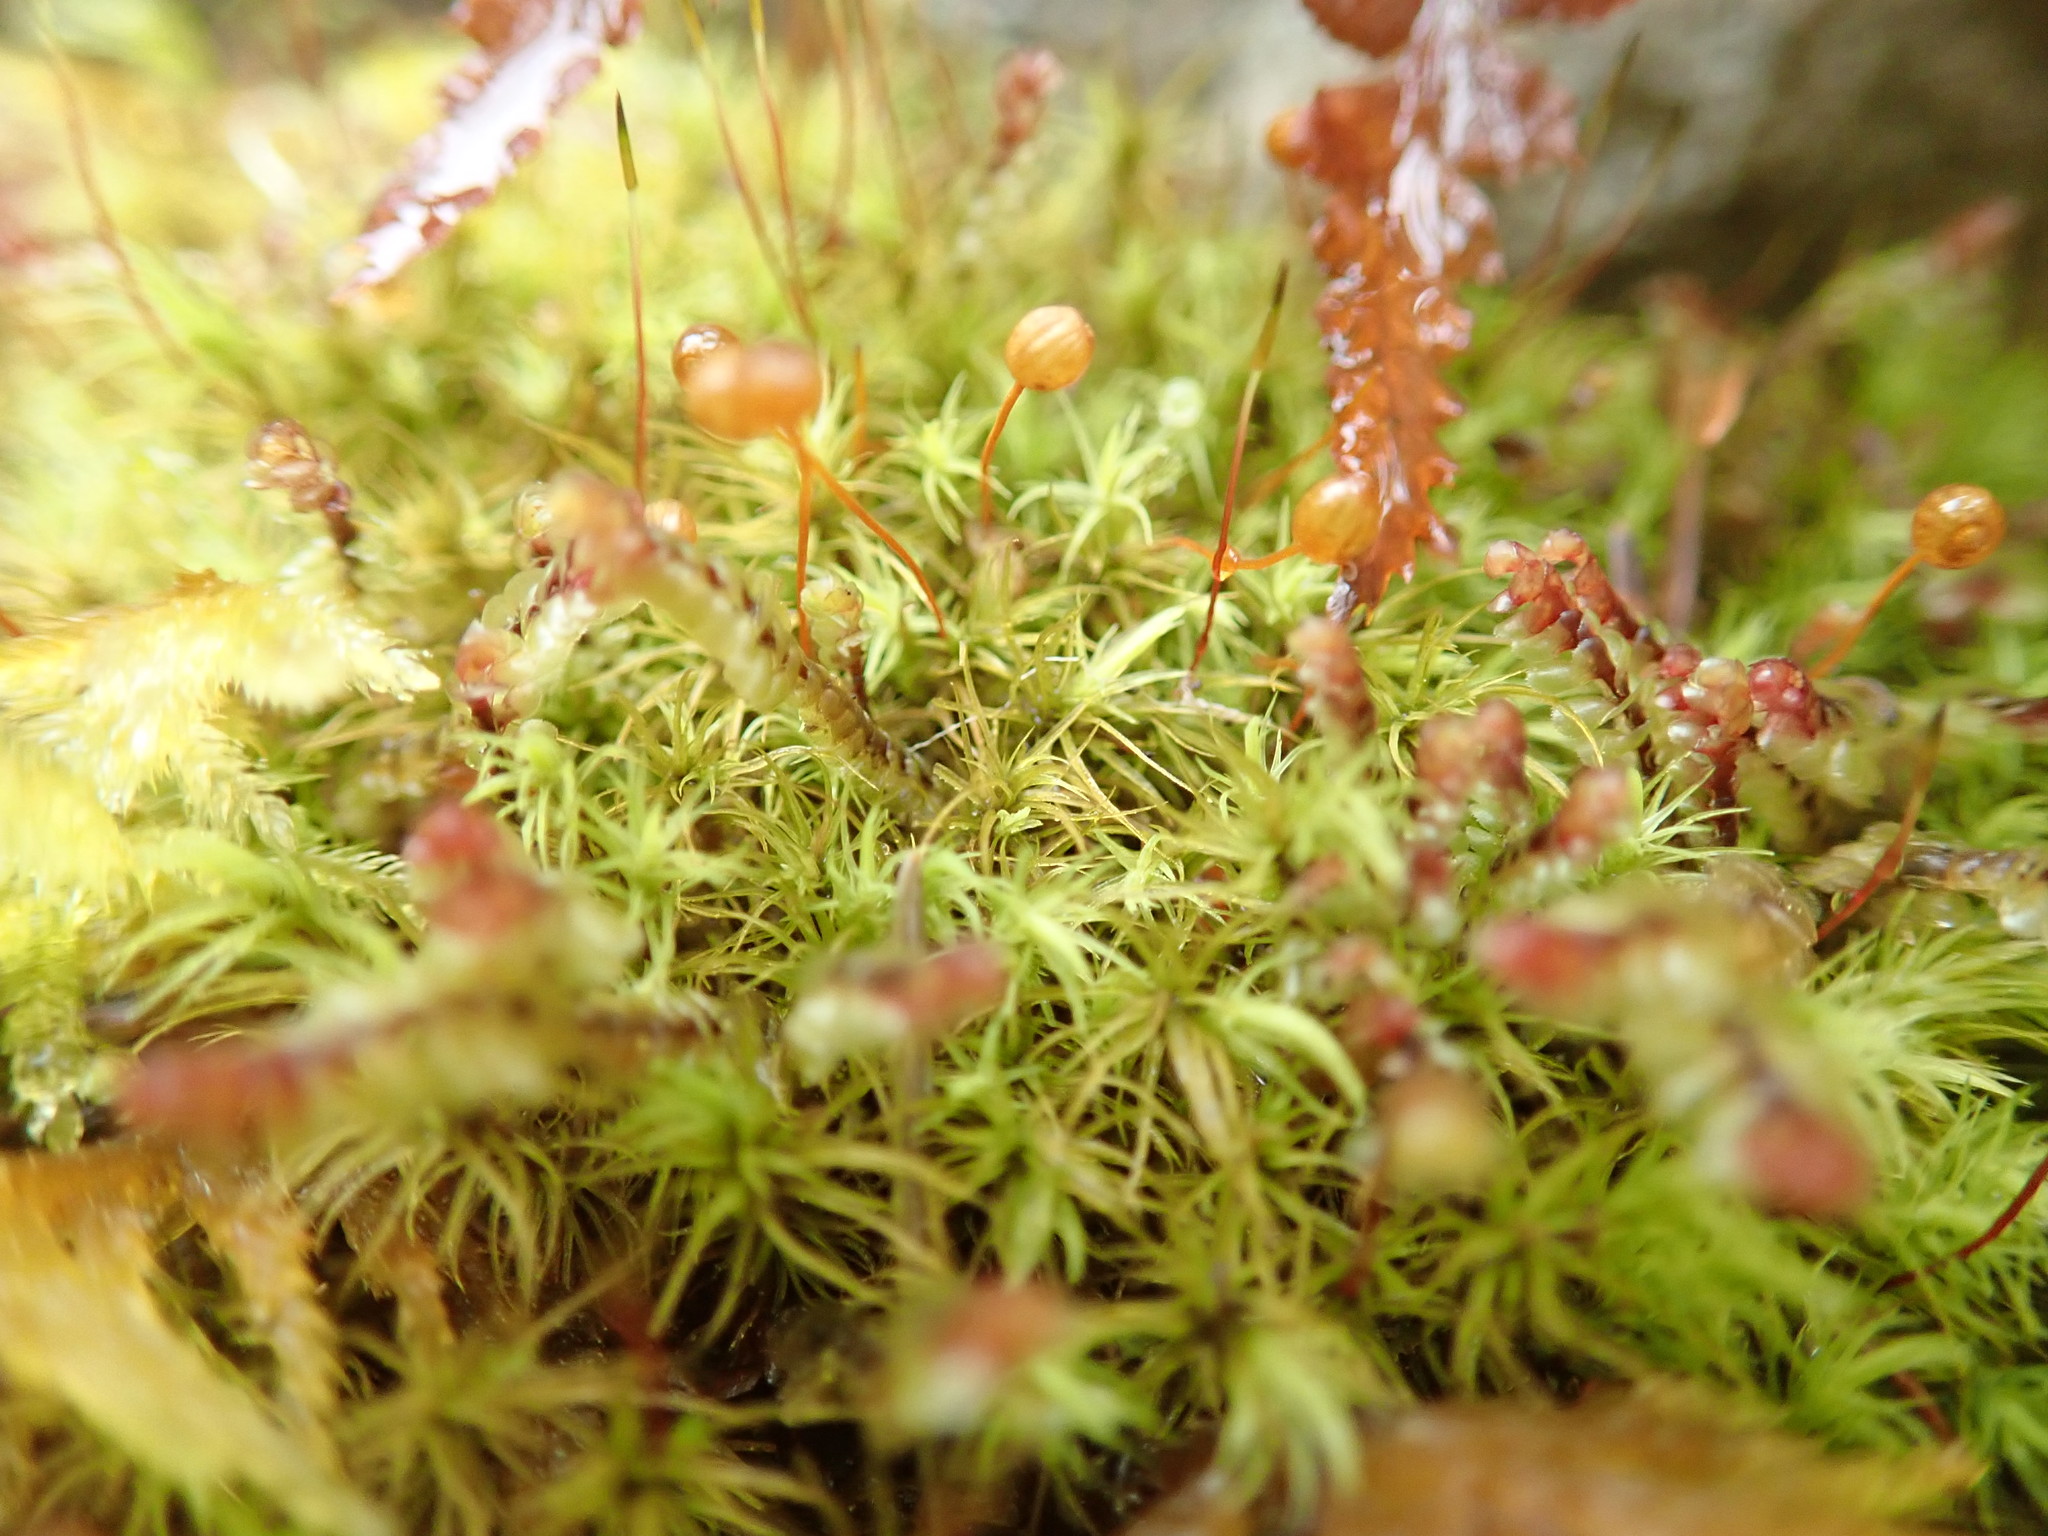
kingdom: Plantae
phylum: Bryophyta
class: Bryopsida
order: Bartramiales
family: Bartramiaceae
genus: Bartramia
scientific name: Bartramia ithyphylla
